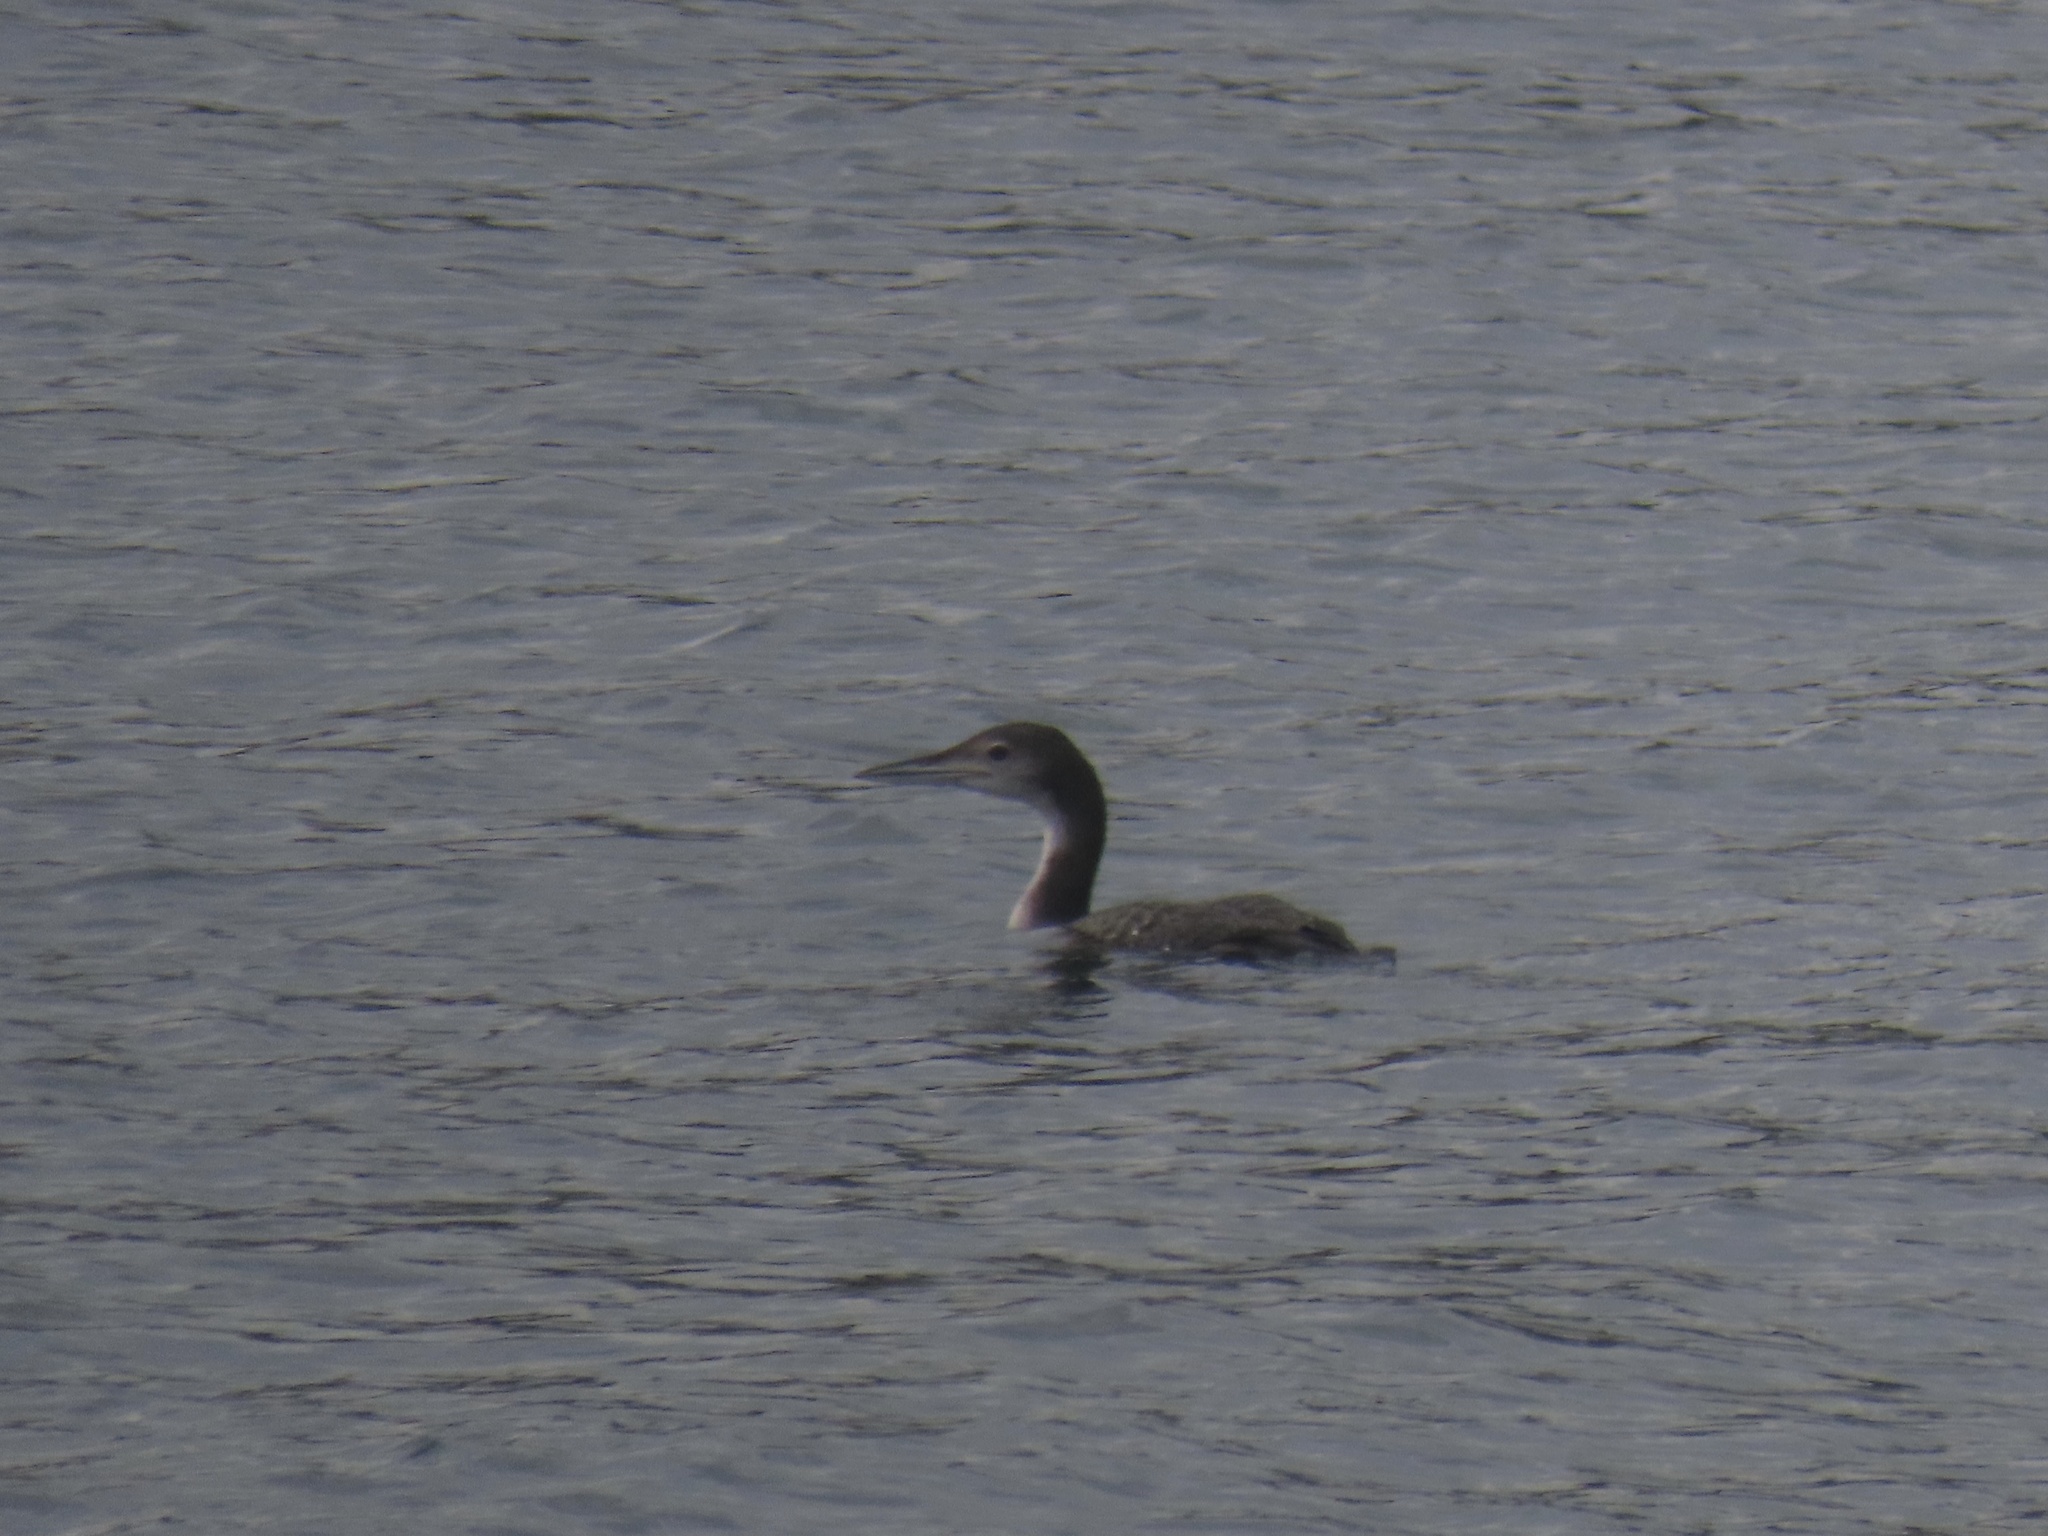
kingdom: Animalia
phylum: Chordata
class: Aves
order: Gaviiformes
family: Gaviidae
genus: Gavia
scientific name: Gavia immer
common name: Common loon
